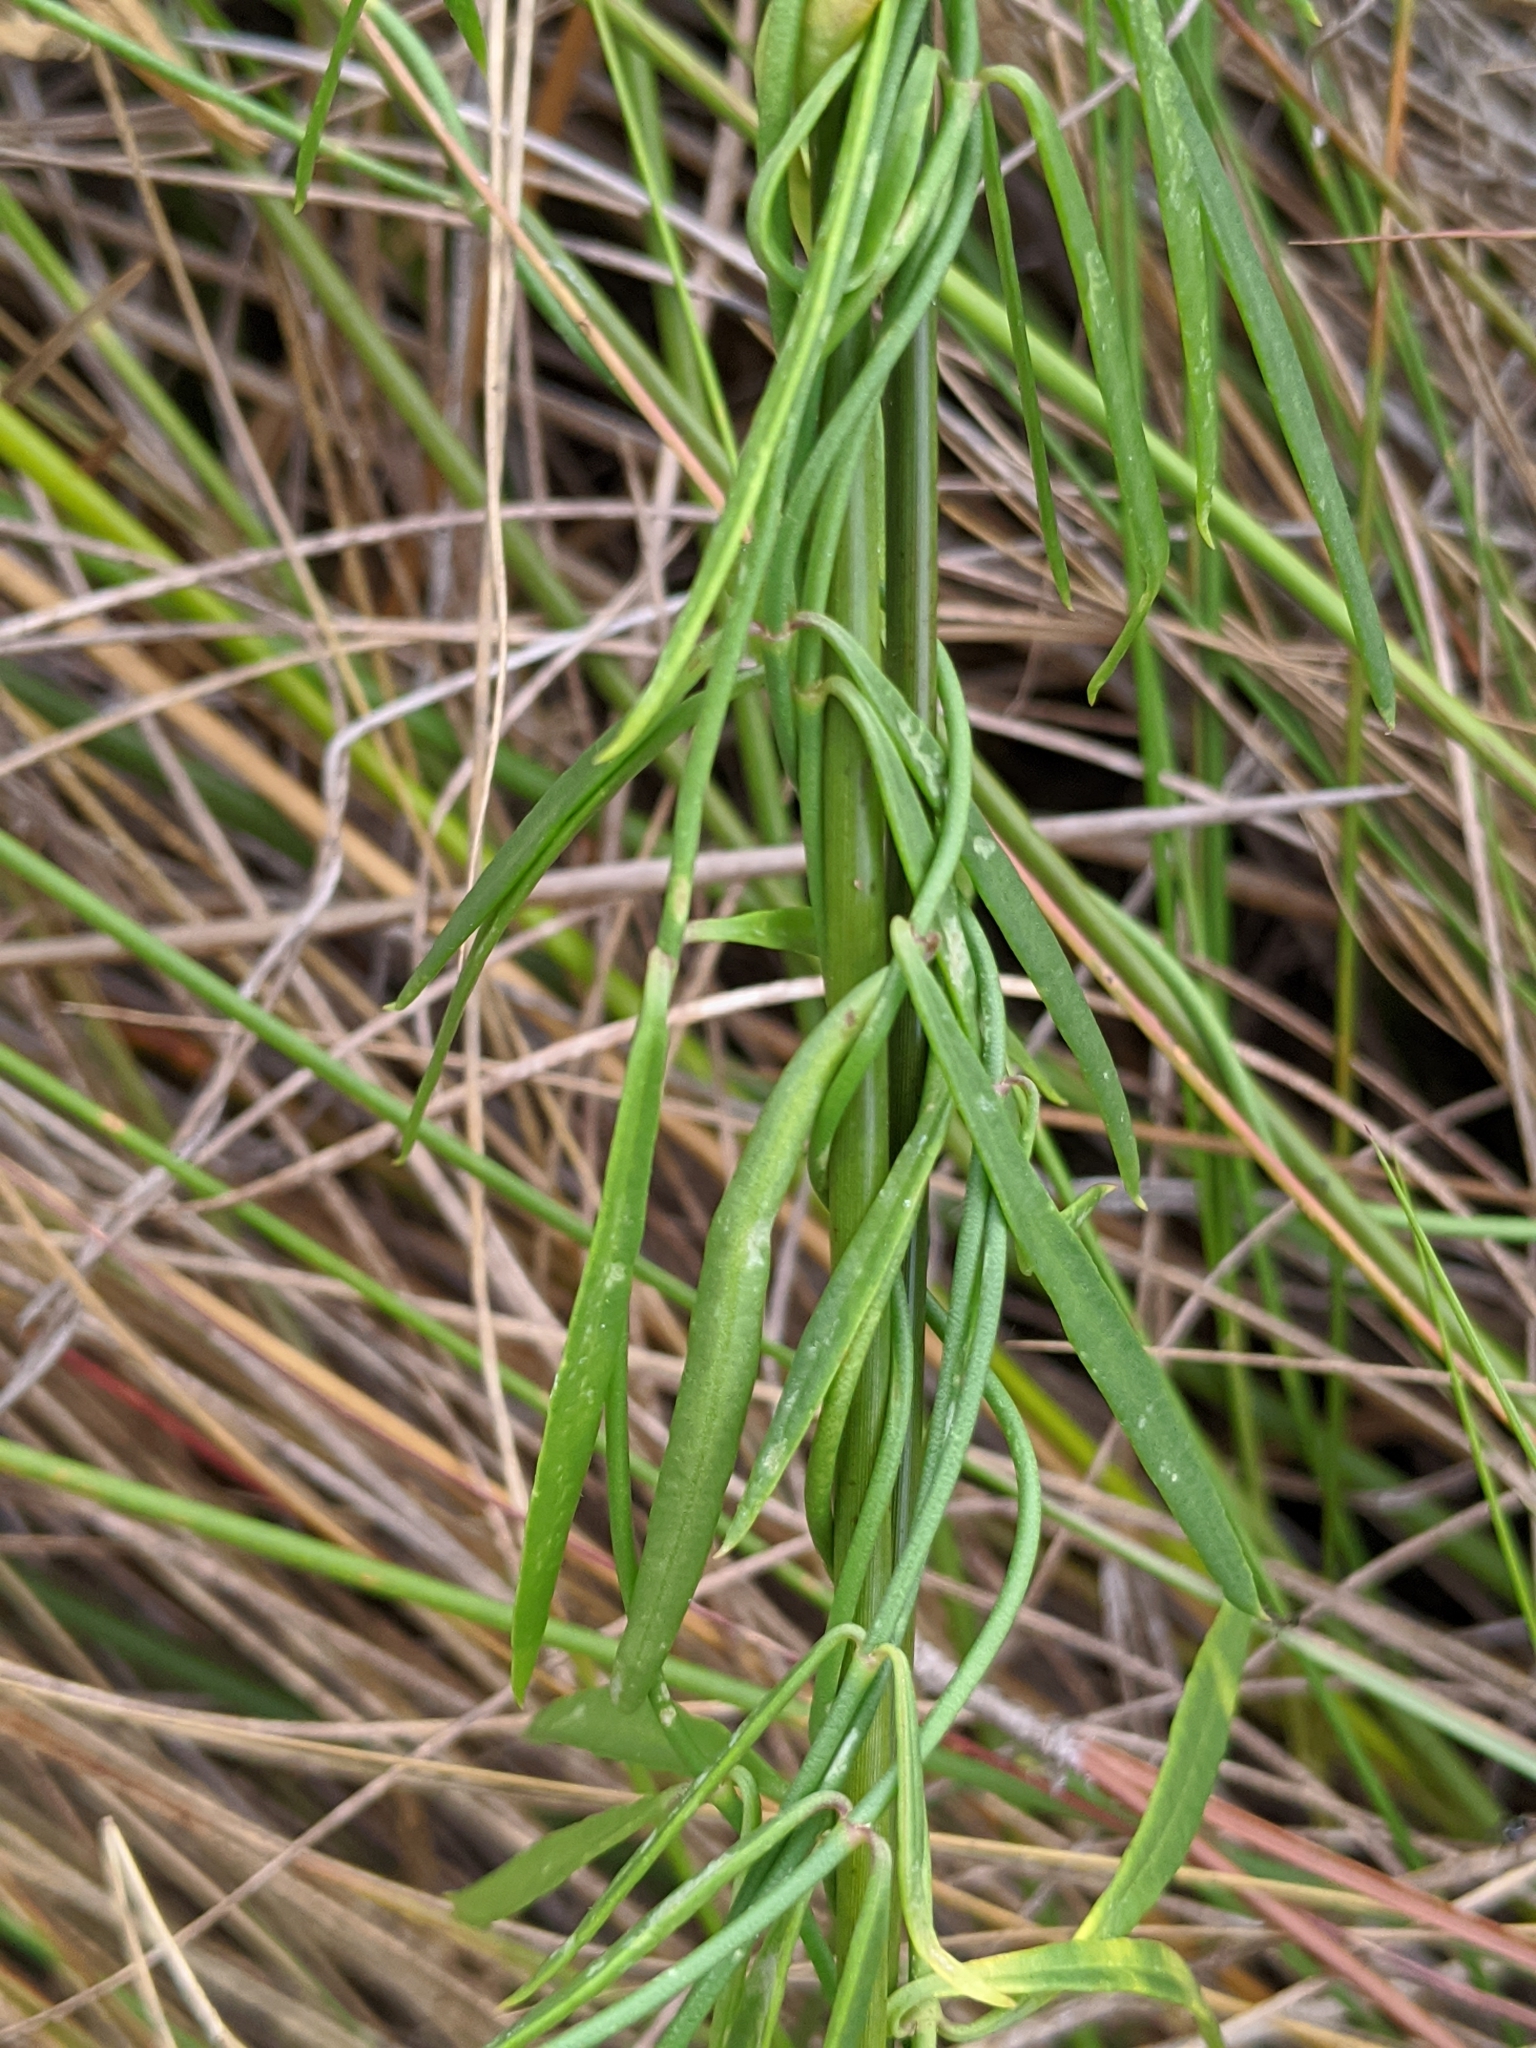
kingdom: Plantae
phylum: Tracheophyta
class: Magnoliopsida
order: Gentianales
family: Apocynaceae
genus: Pattalias
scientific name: Pattalias
